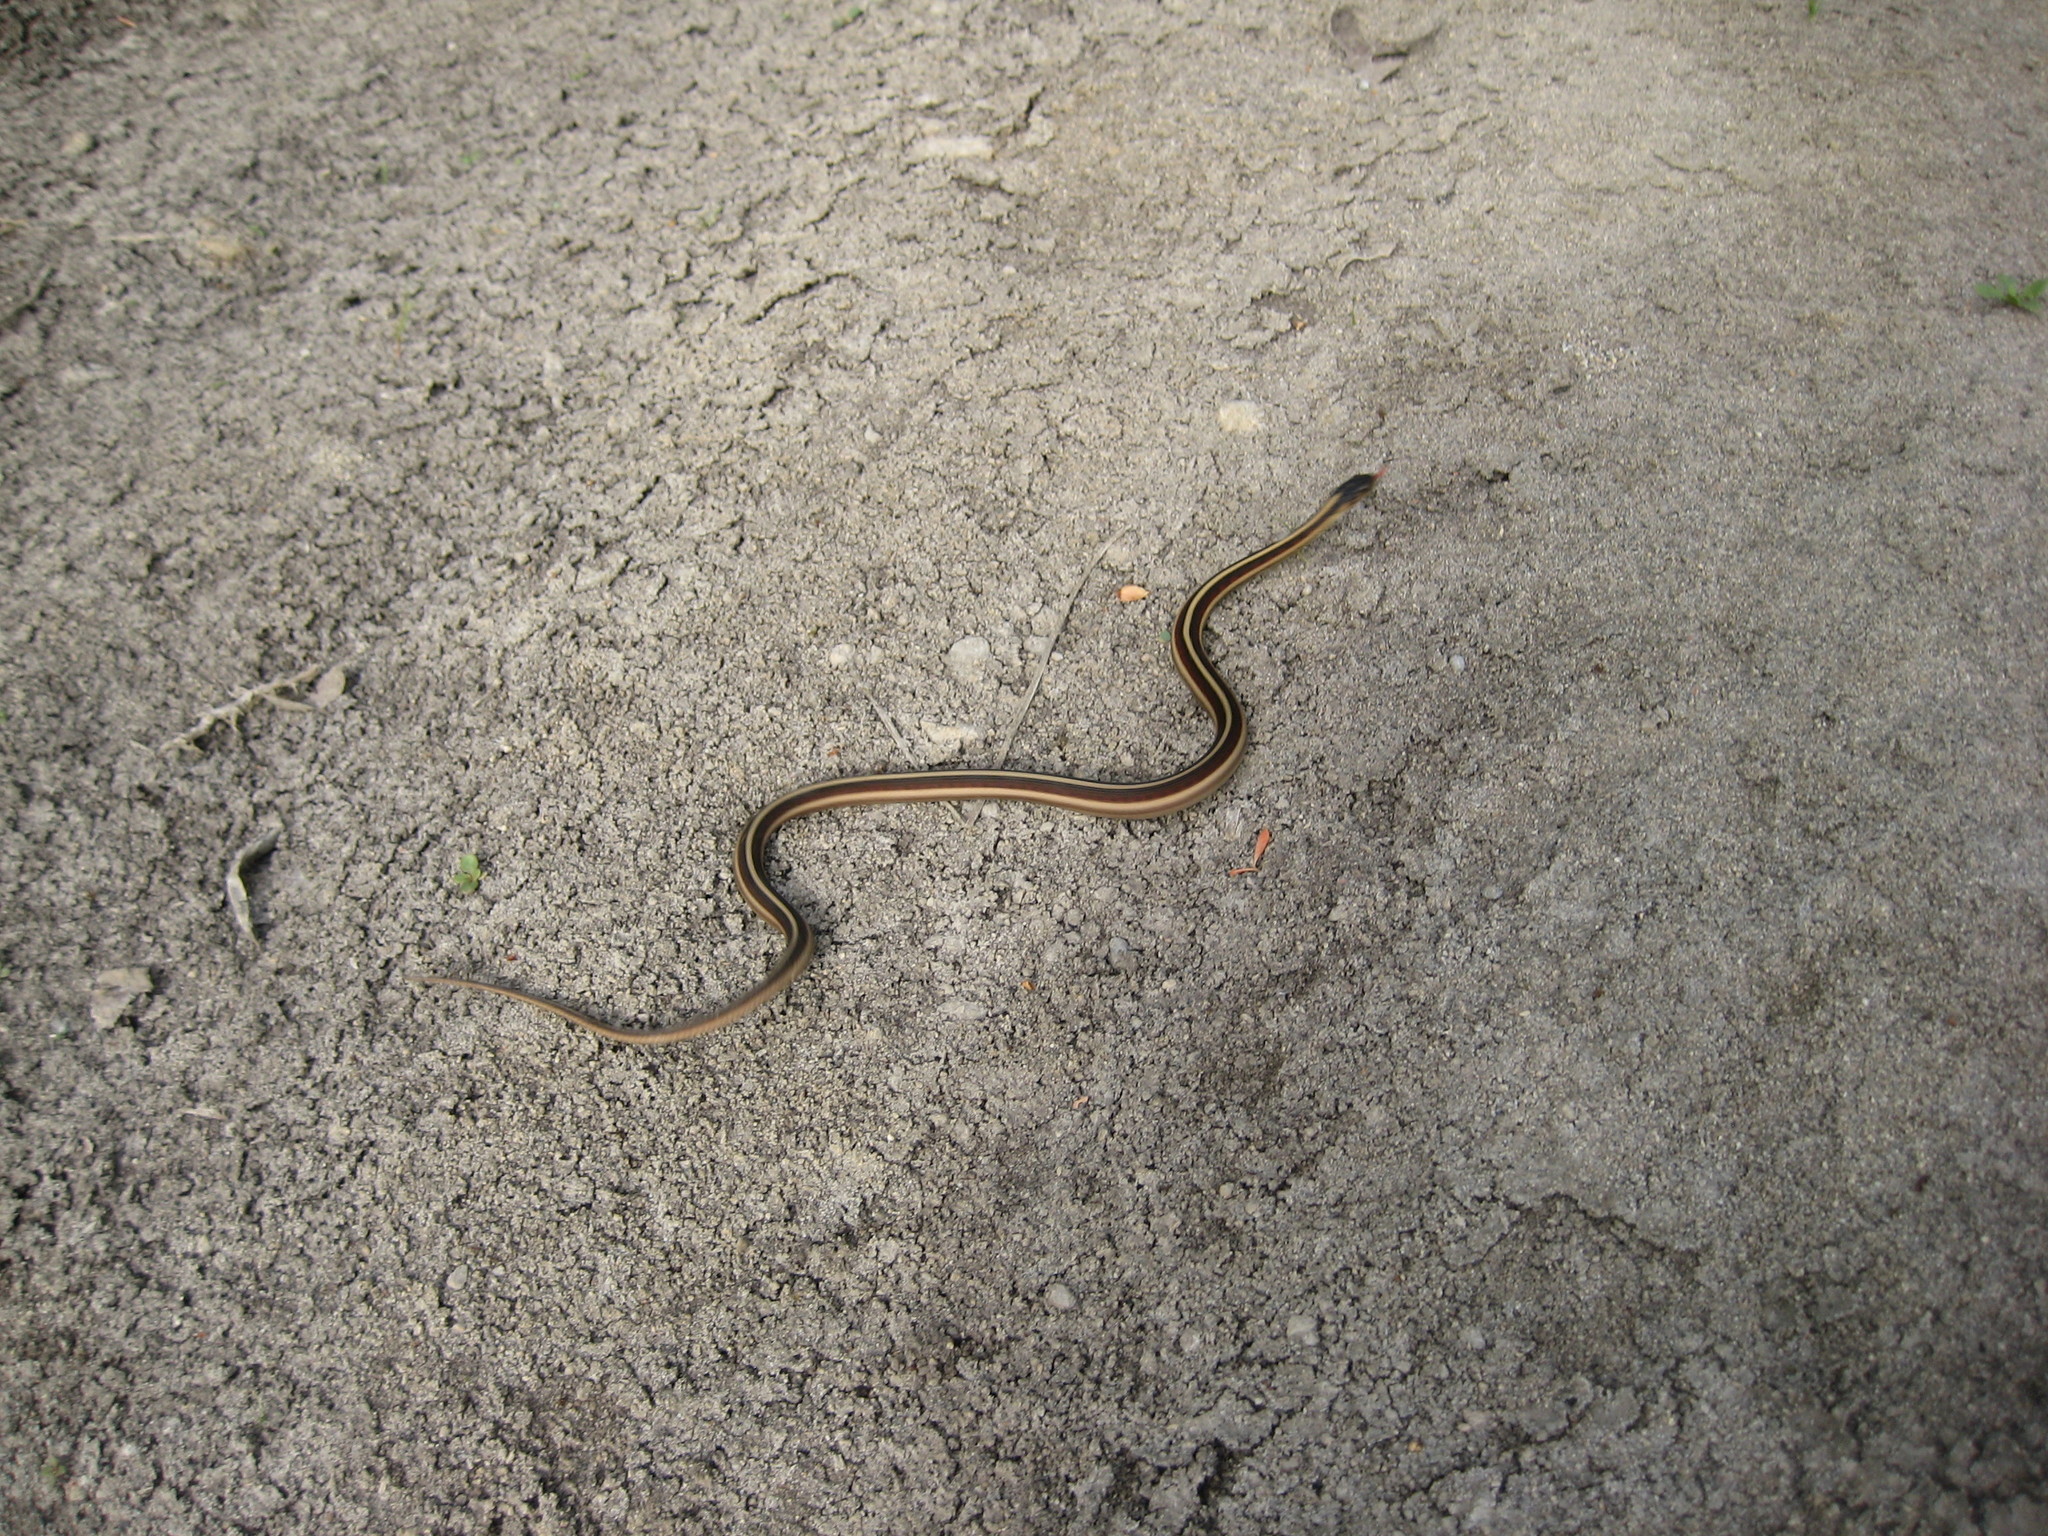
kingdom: Animalia
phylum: Chordata
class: Squamata
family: Colubridae
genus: Thamnophis
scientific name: Thamnophis sirtalis
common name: Common garter snake
